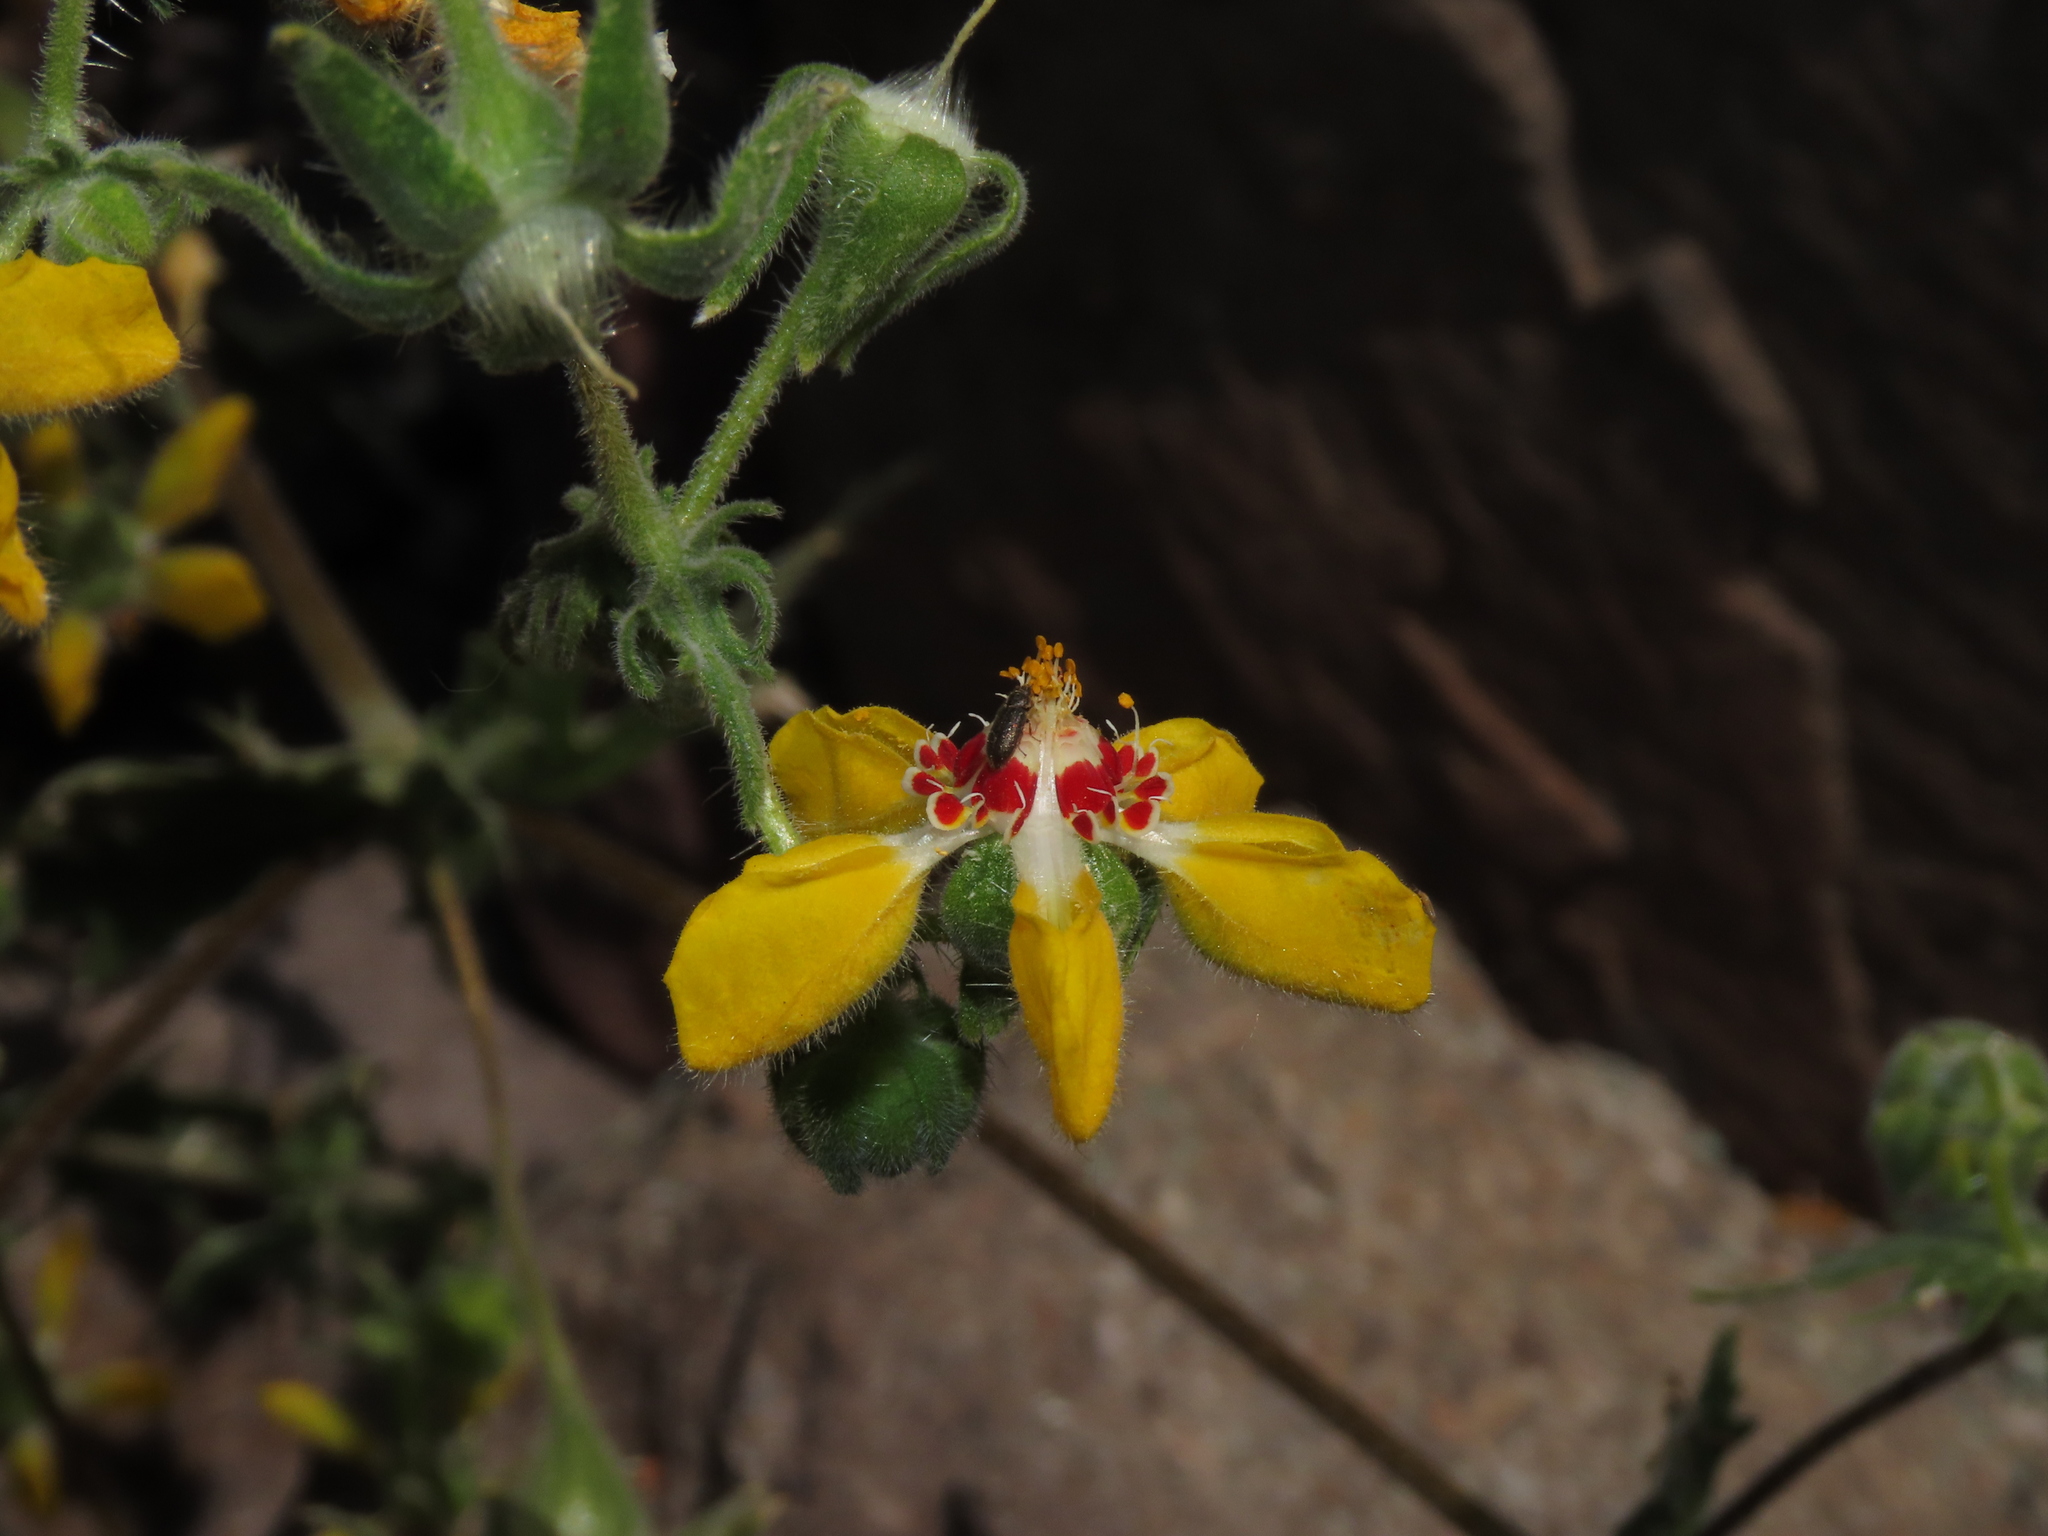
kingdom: Plantae
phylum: Tracheophyta
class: Magnoliopsida
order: Cornales
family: Loasaceae
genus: Loasa
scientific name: Loasa insons
